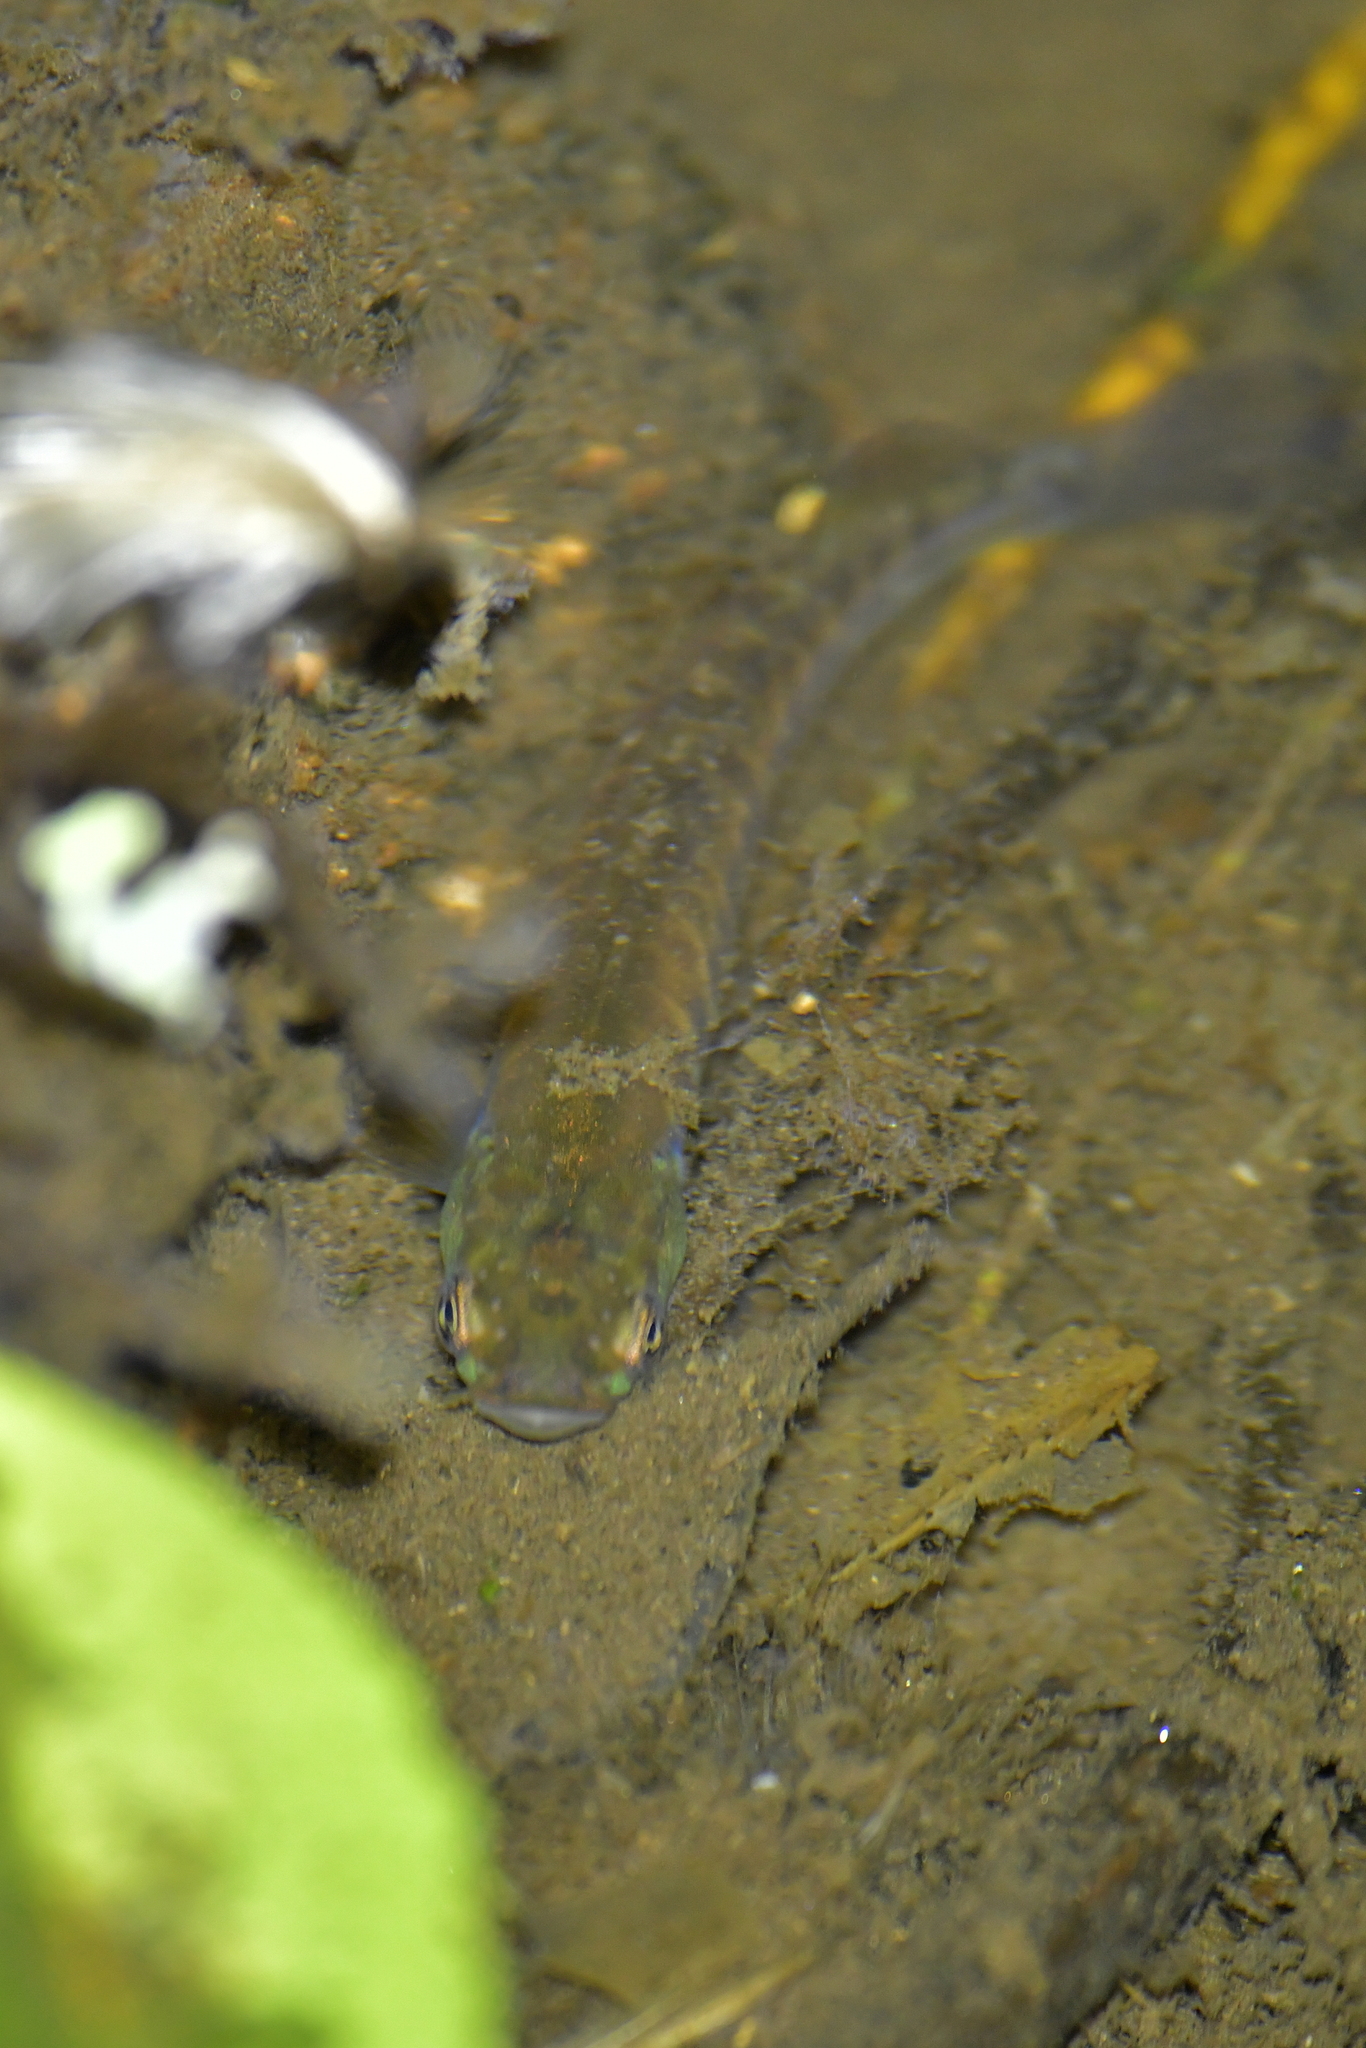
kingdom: Animalia
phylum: Chordata
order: Osmeriformes
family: Galaxiidae
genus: Galaxias
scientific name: Galaxias fasciatus
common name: Banded kokopu
